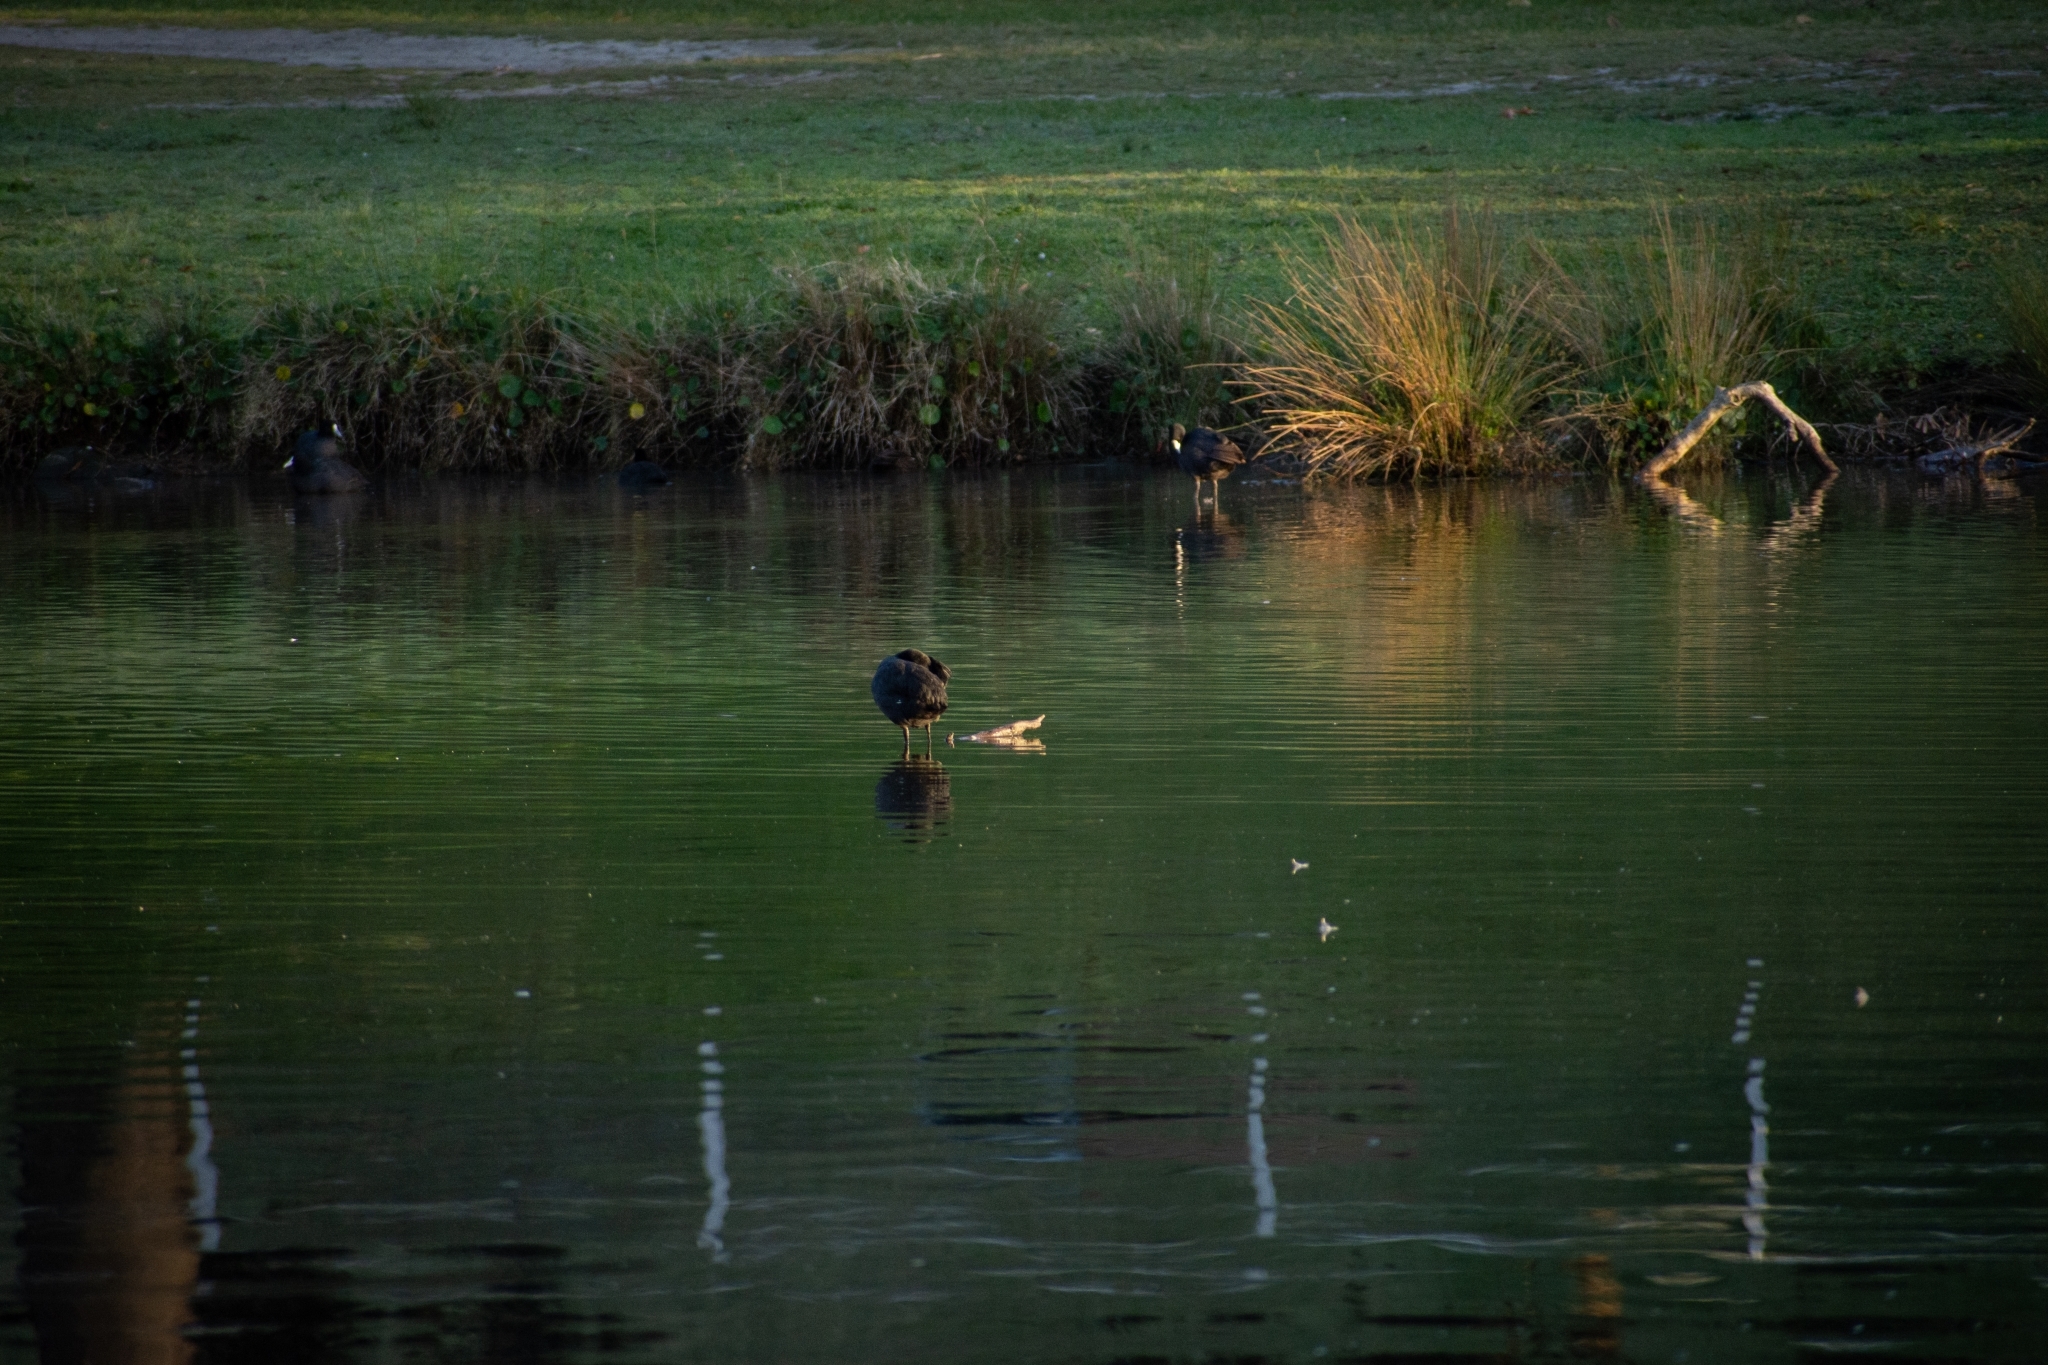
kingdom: Animalia
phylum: Chordata
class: Aves
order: Gruiformes
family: Rallidae
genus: Porphyrio
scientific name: Porphyrio melanotus
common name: Australasian swamphen
